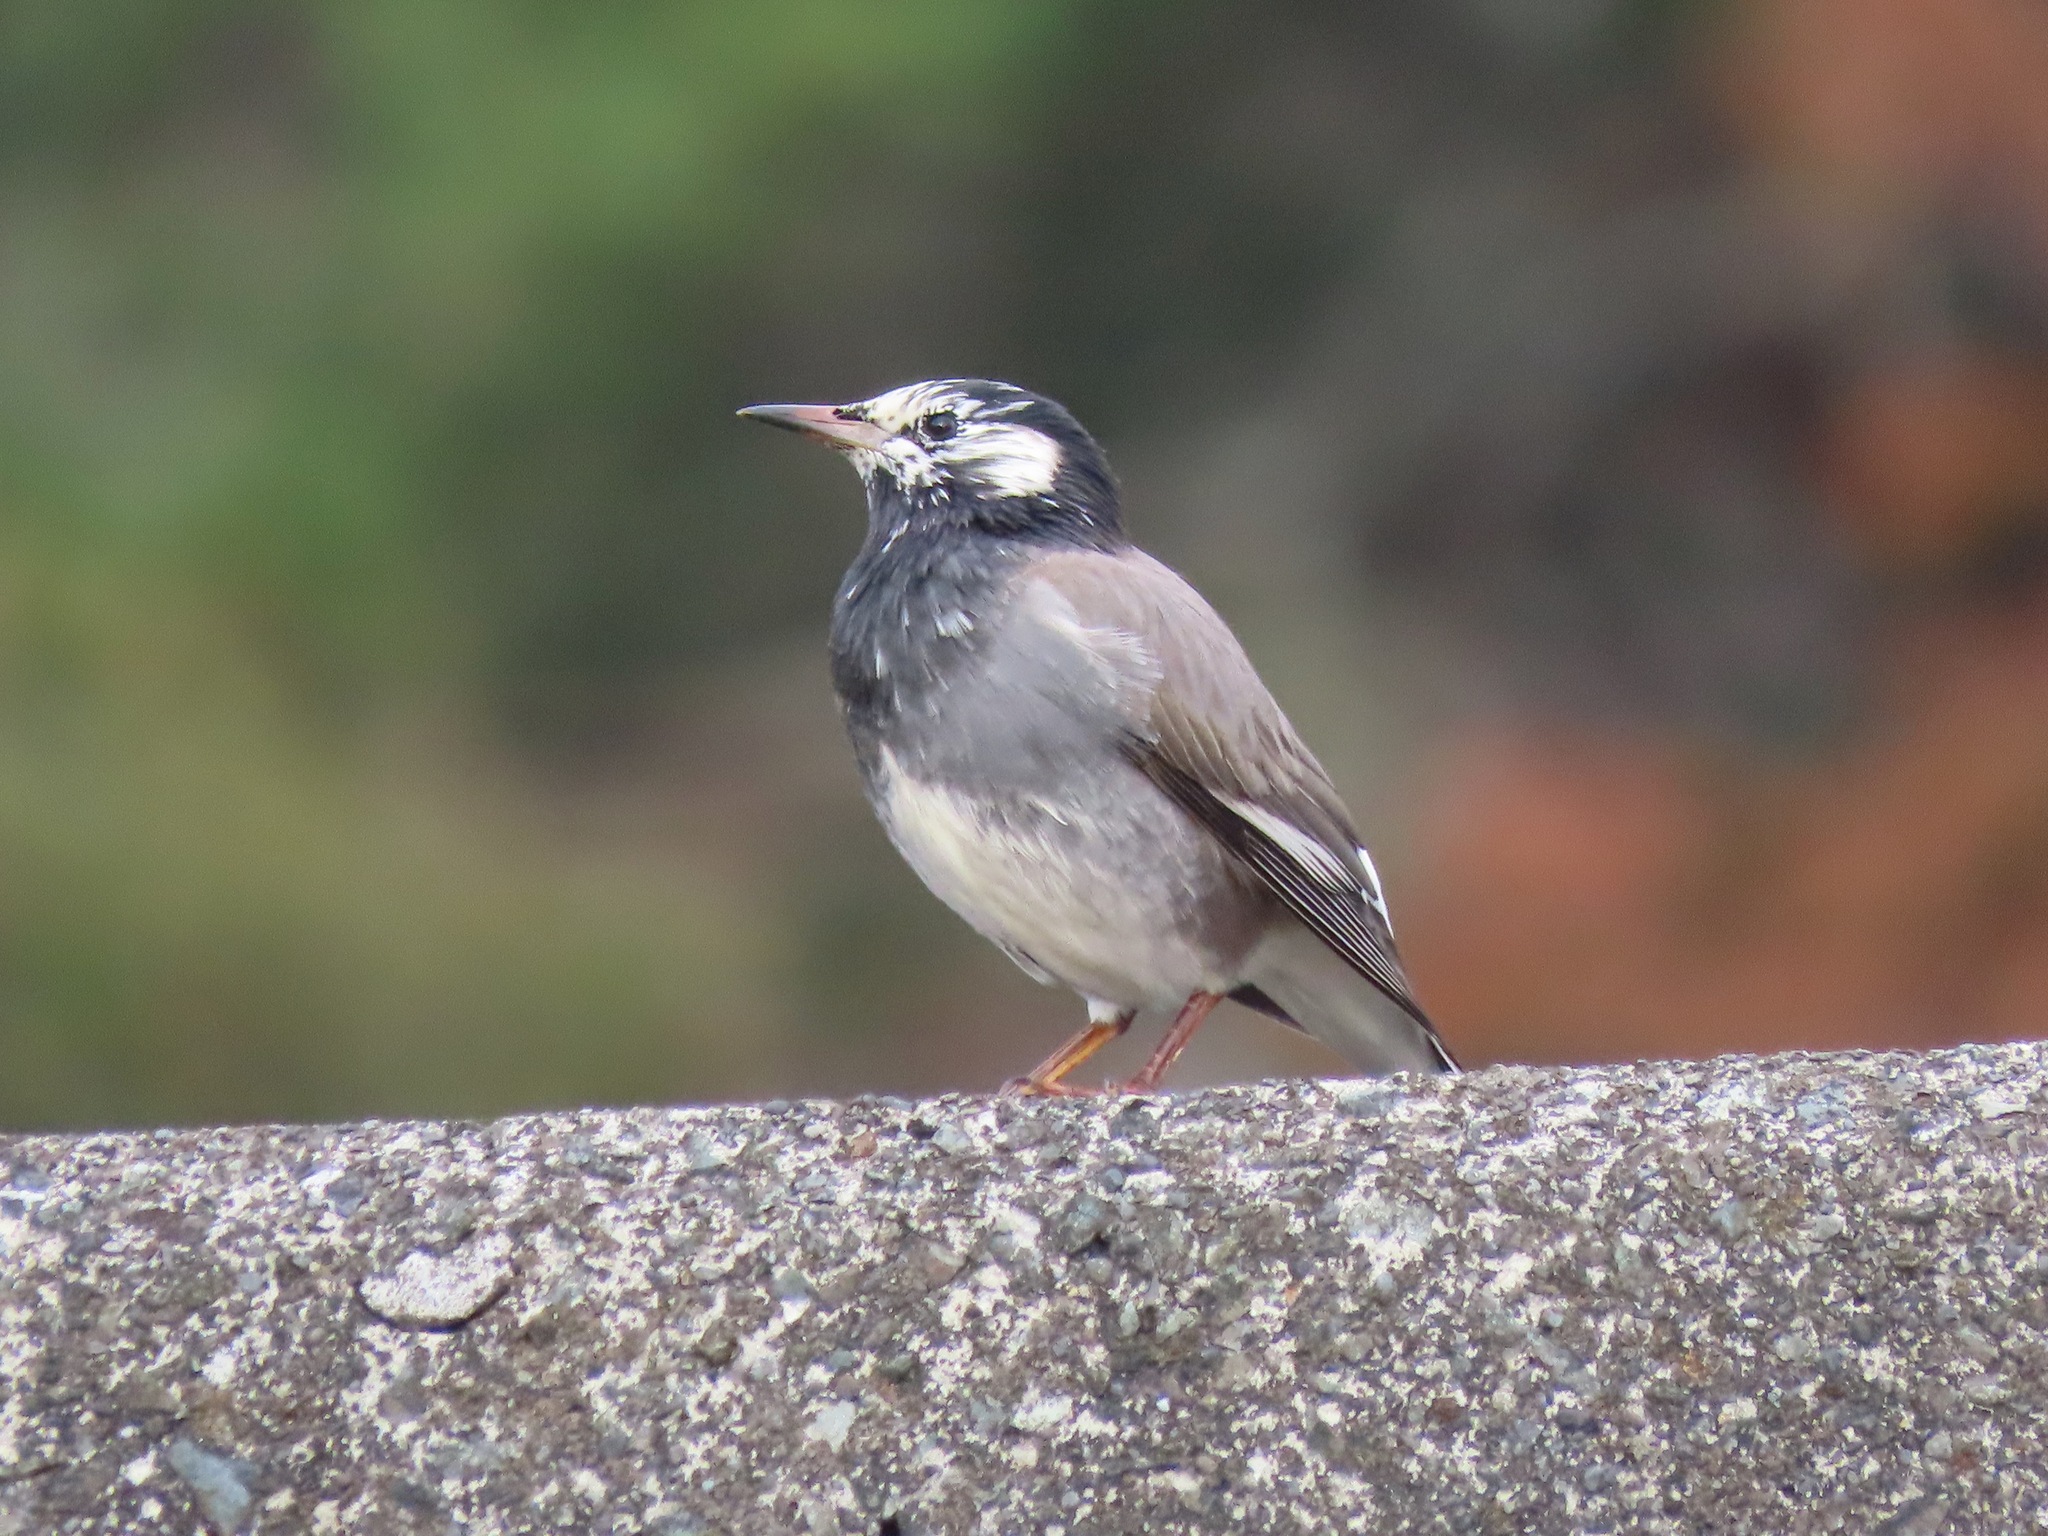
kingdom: Animalia
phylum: Chordata
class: Aves
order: Passeriformes
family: Sturnidae
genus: Spodiopsar
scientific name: Spodiopsar cineraceus
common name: White-cheeked starling
